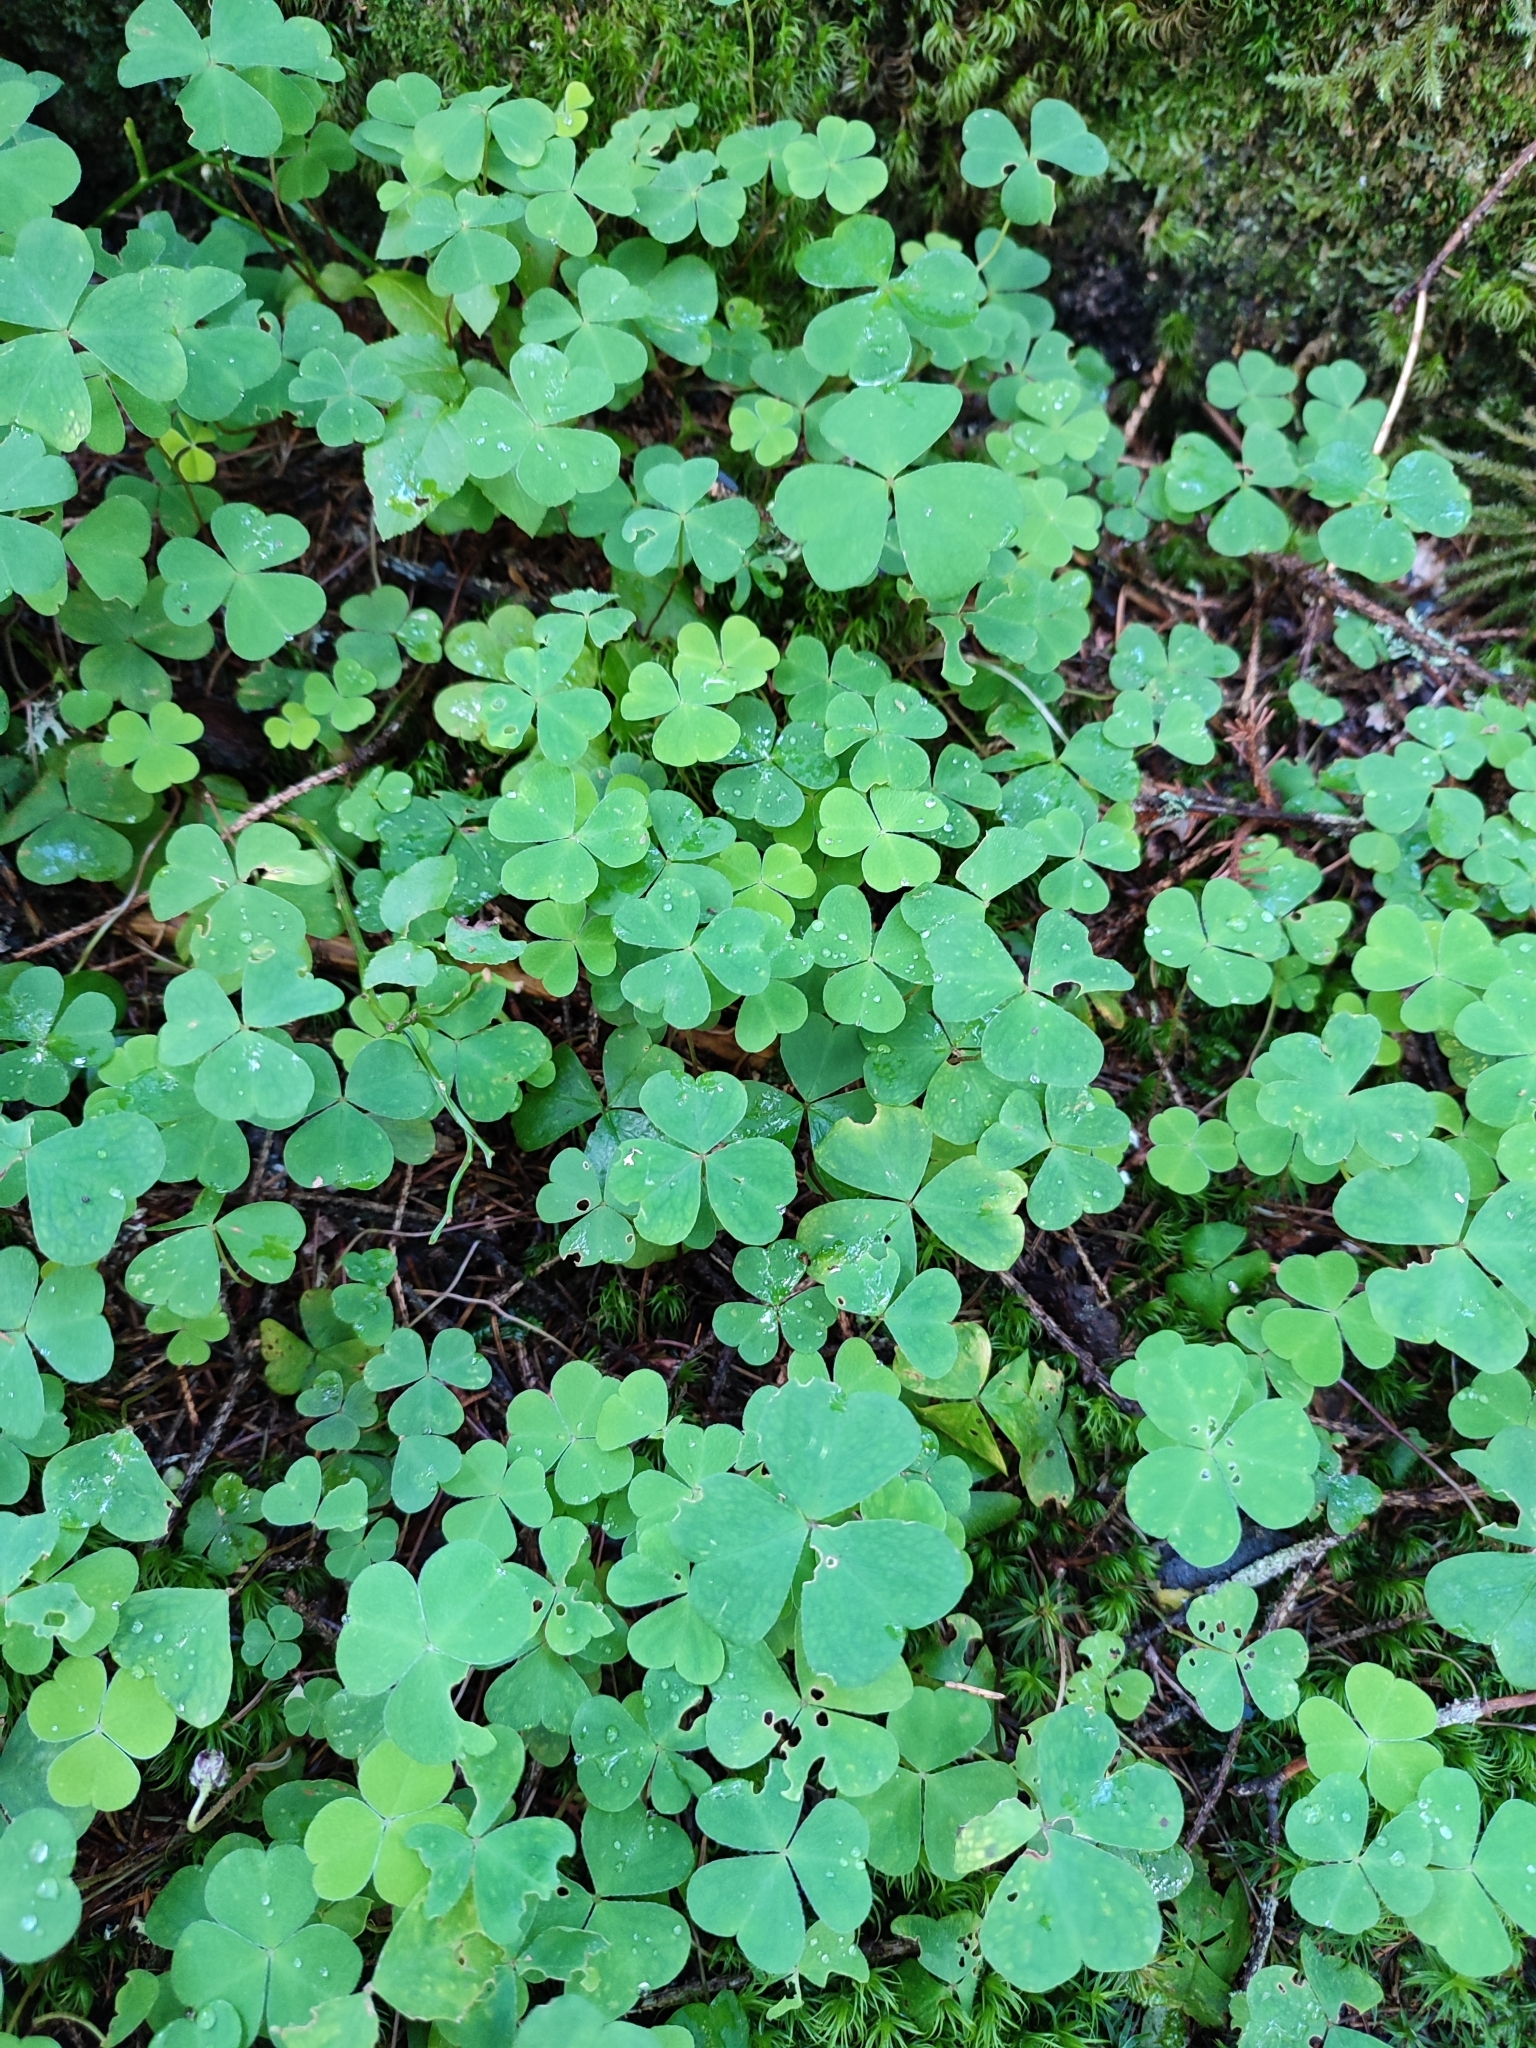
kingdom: Plantae
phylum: Tracheophyta
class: Magnoliopsida
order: Oxalidales
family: Oxalidaceae
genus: Oxalis
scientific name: Oxalis acetosella
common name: Wood-sorrel
